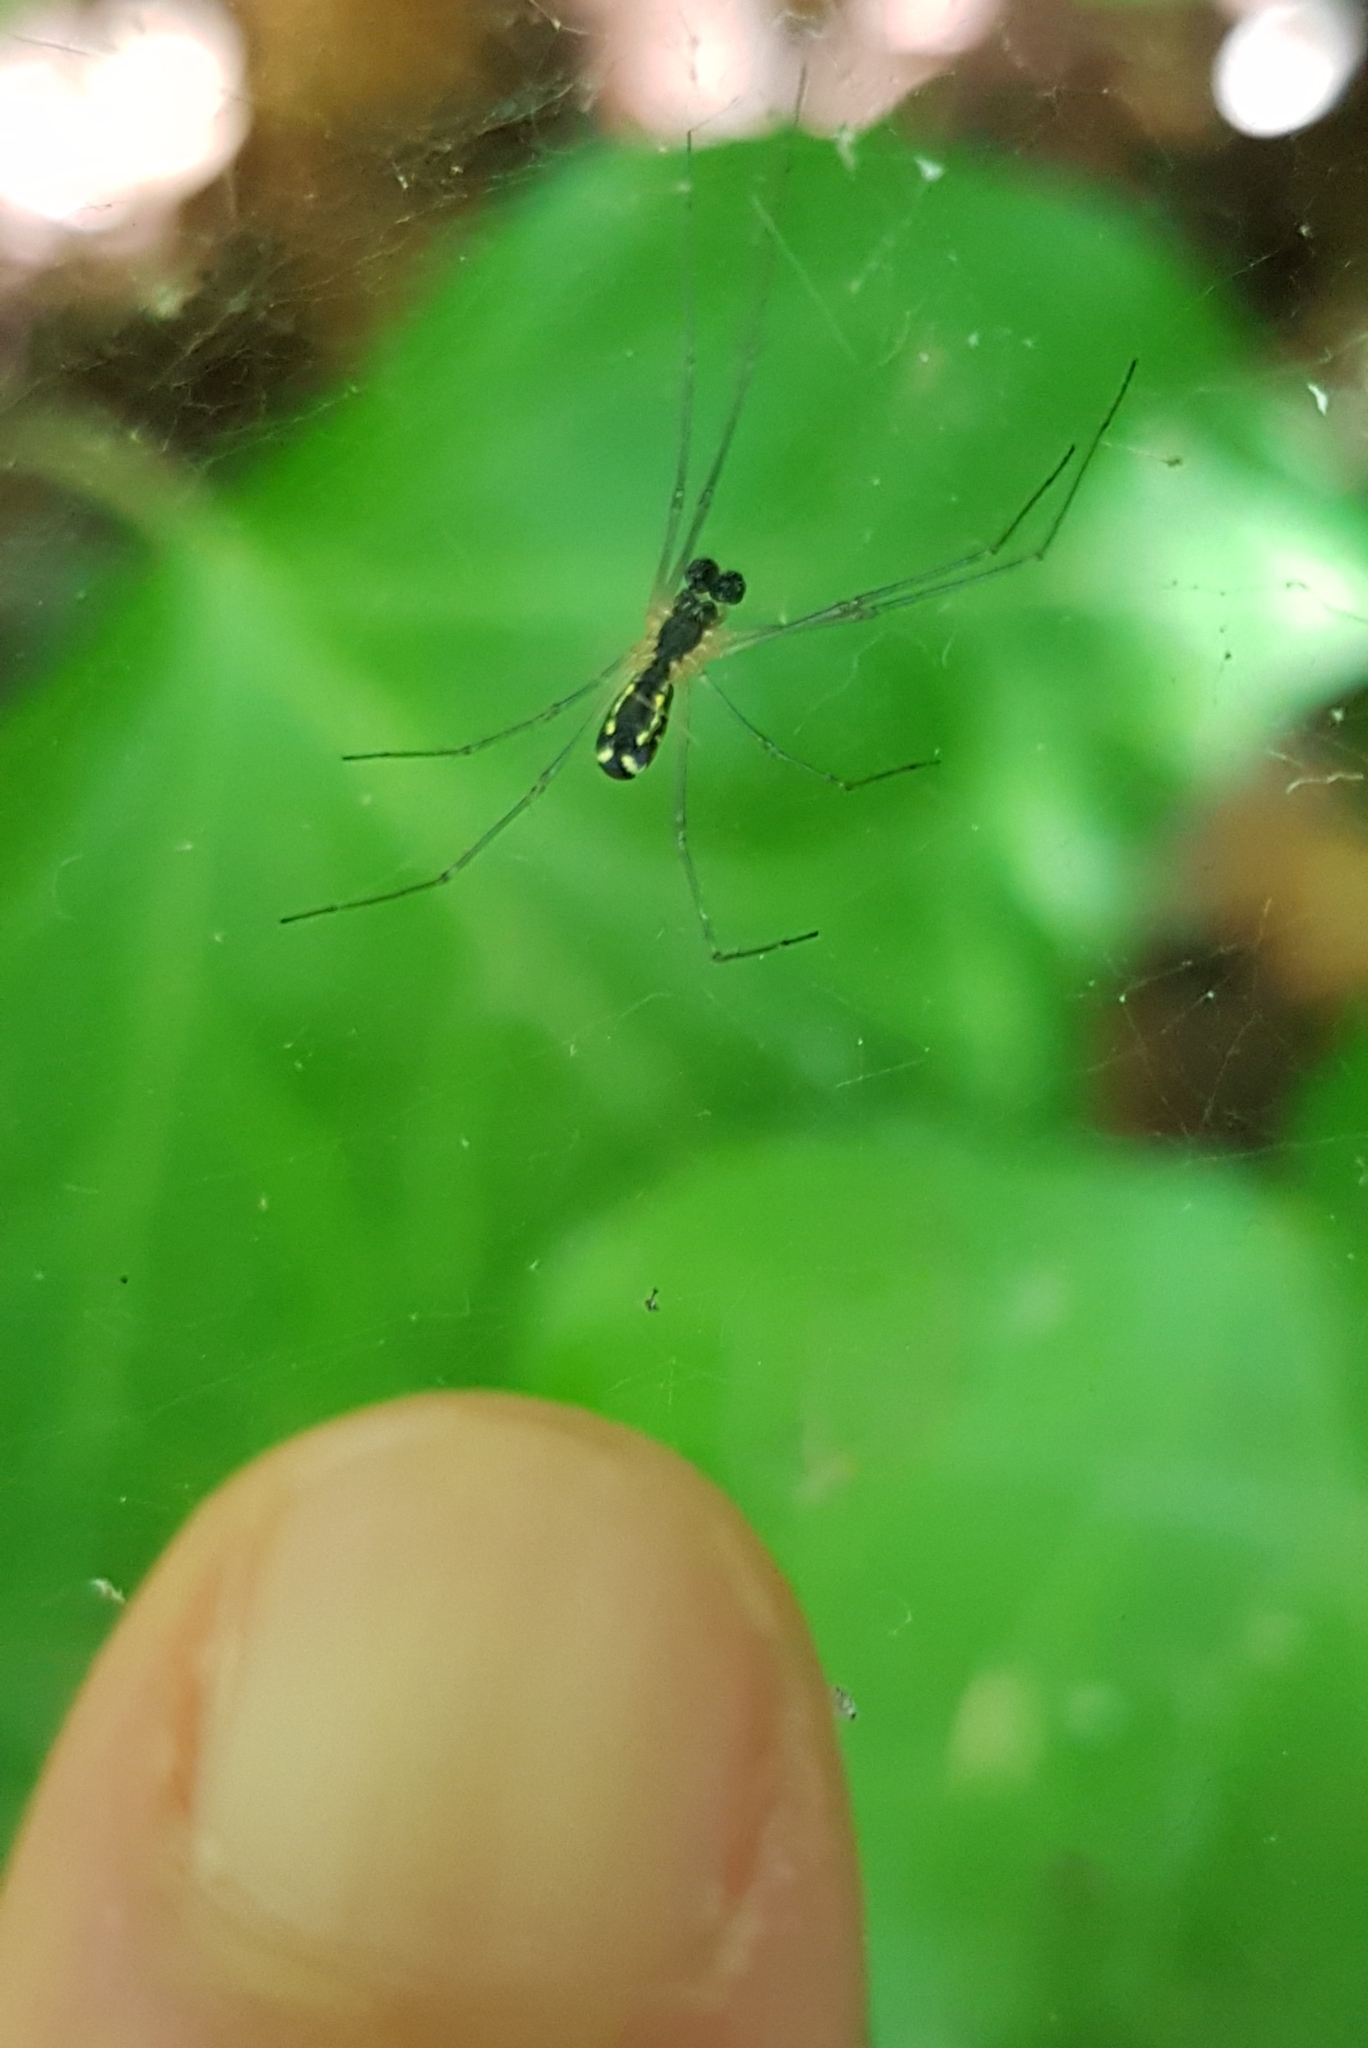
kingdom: Animalia
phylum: Arthropoda
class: Arachnida
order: Araneae
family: Linyphiidae
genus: Neriene
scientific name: Neriene radiata
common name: Filmy dome spider
